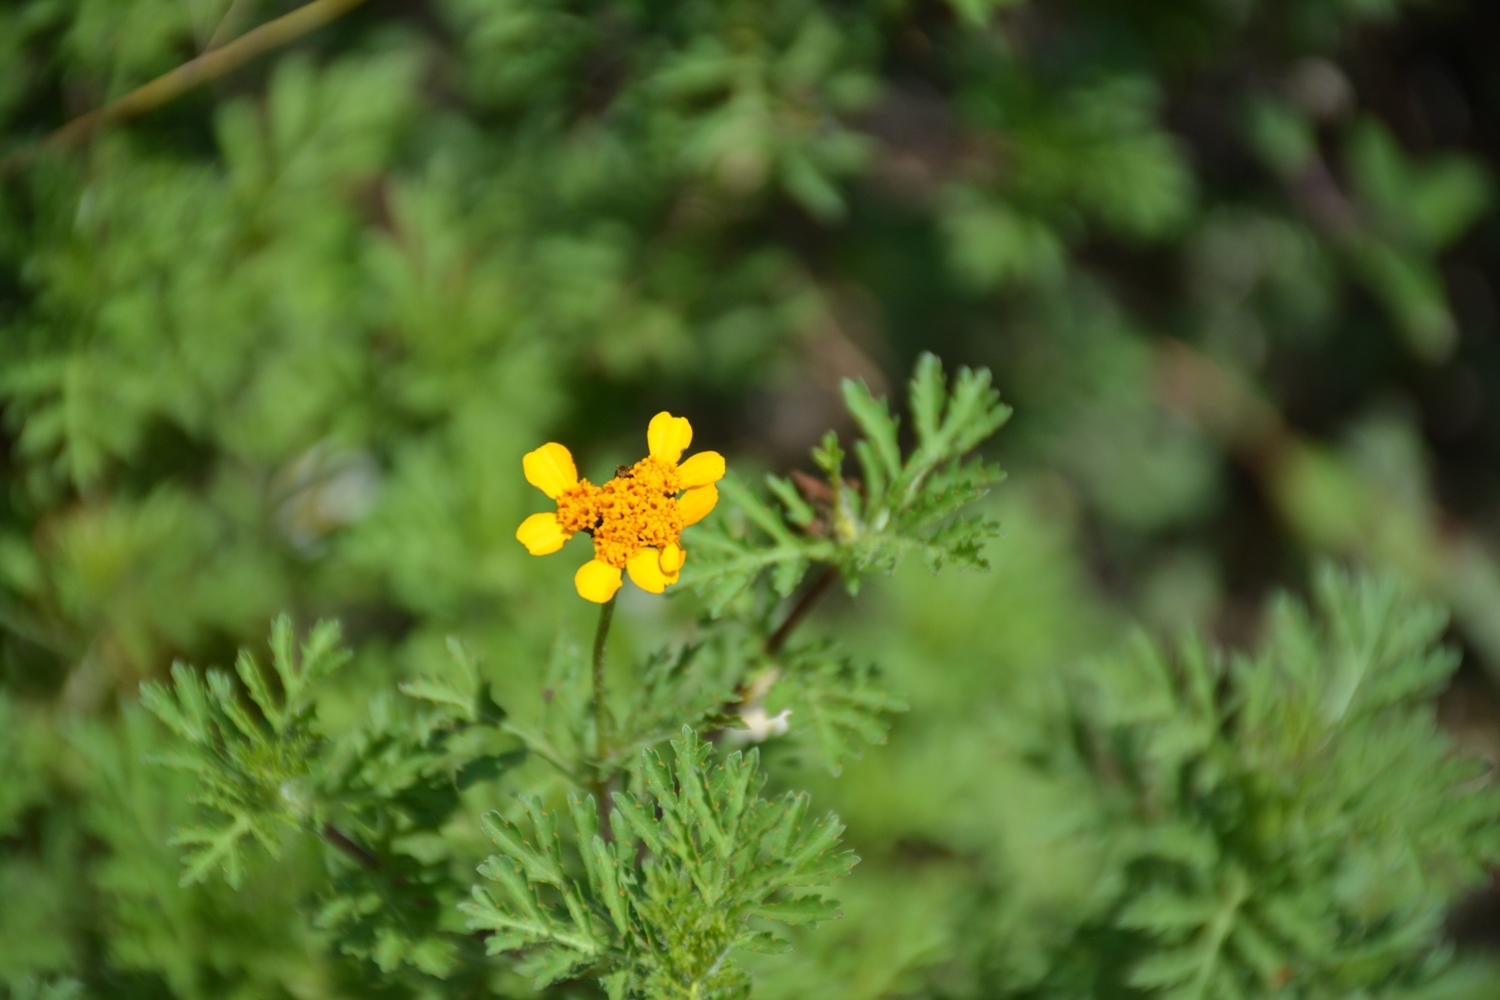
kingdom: Plantae
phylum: Tracheophyta
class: Magnoliopsida
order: Asterales
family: Asteraceae
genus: Dyssodia
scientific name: Dyssodia decipiens
